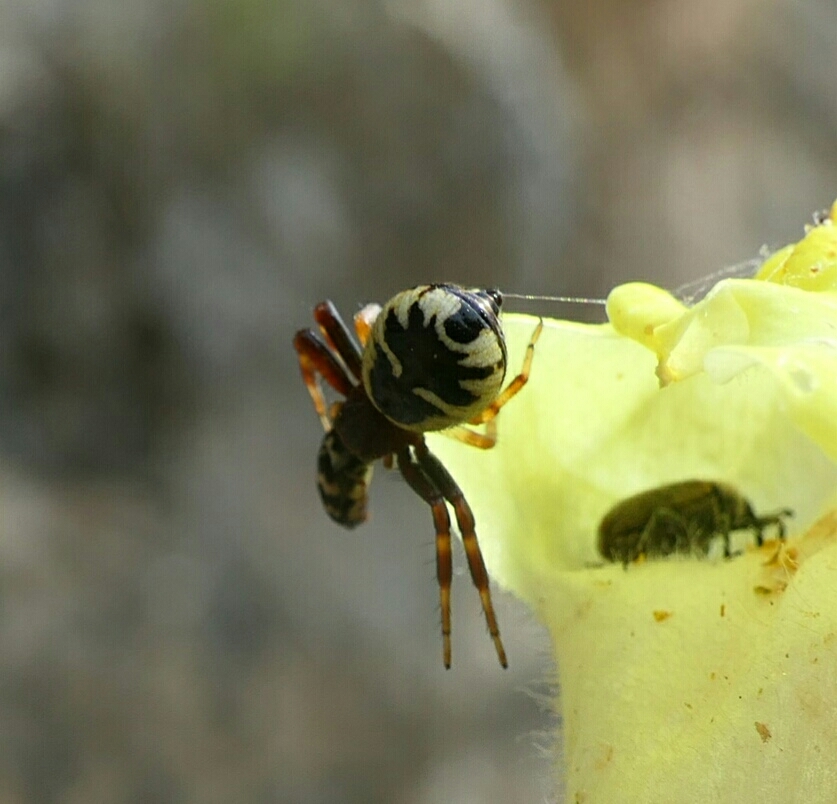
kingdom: Animalia
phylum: Arthropoda
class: Arachnida
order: Araneae
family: Thomisidae
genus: Synema
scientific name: Synema globosum
